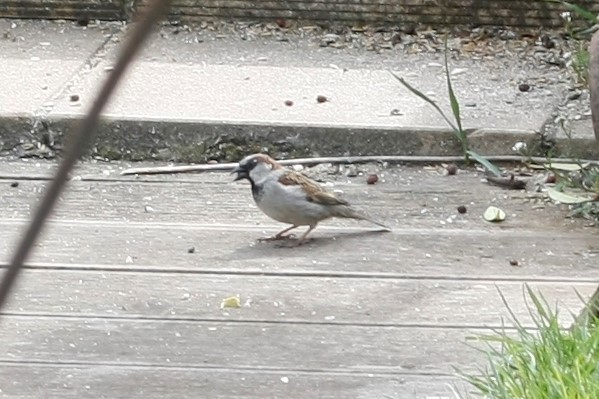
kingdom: Animalia
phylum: Chordata
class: Aves
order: Passeriformes
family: Passeridae
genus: Passer
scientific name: Passer domesticus
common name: House sparrow
